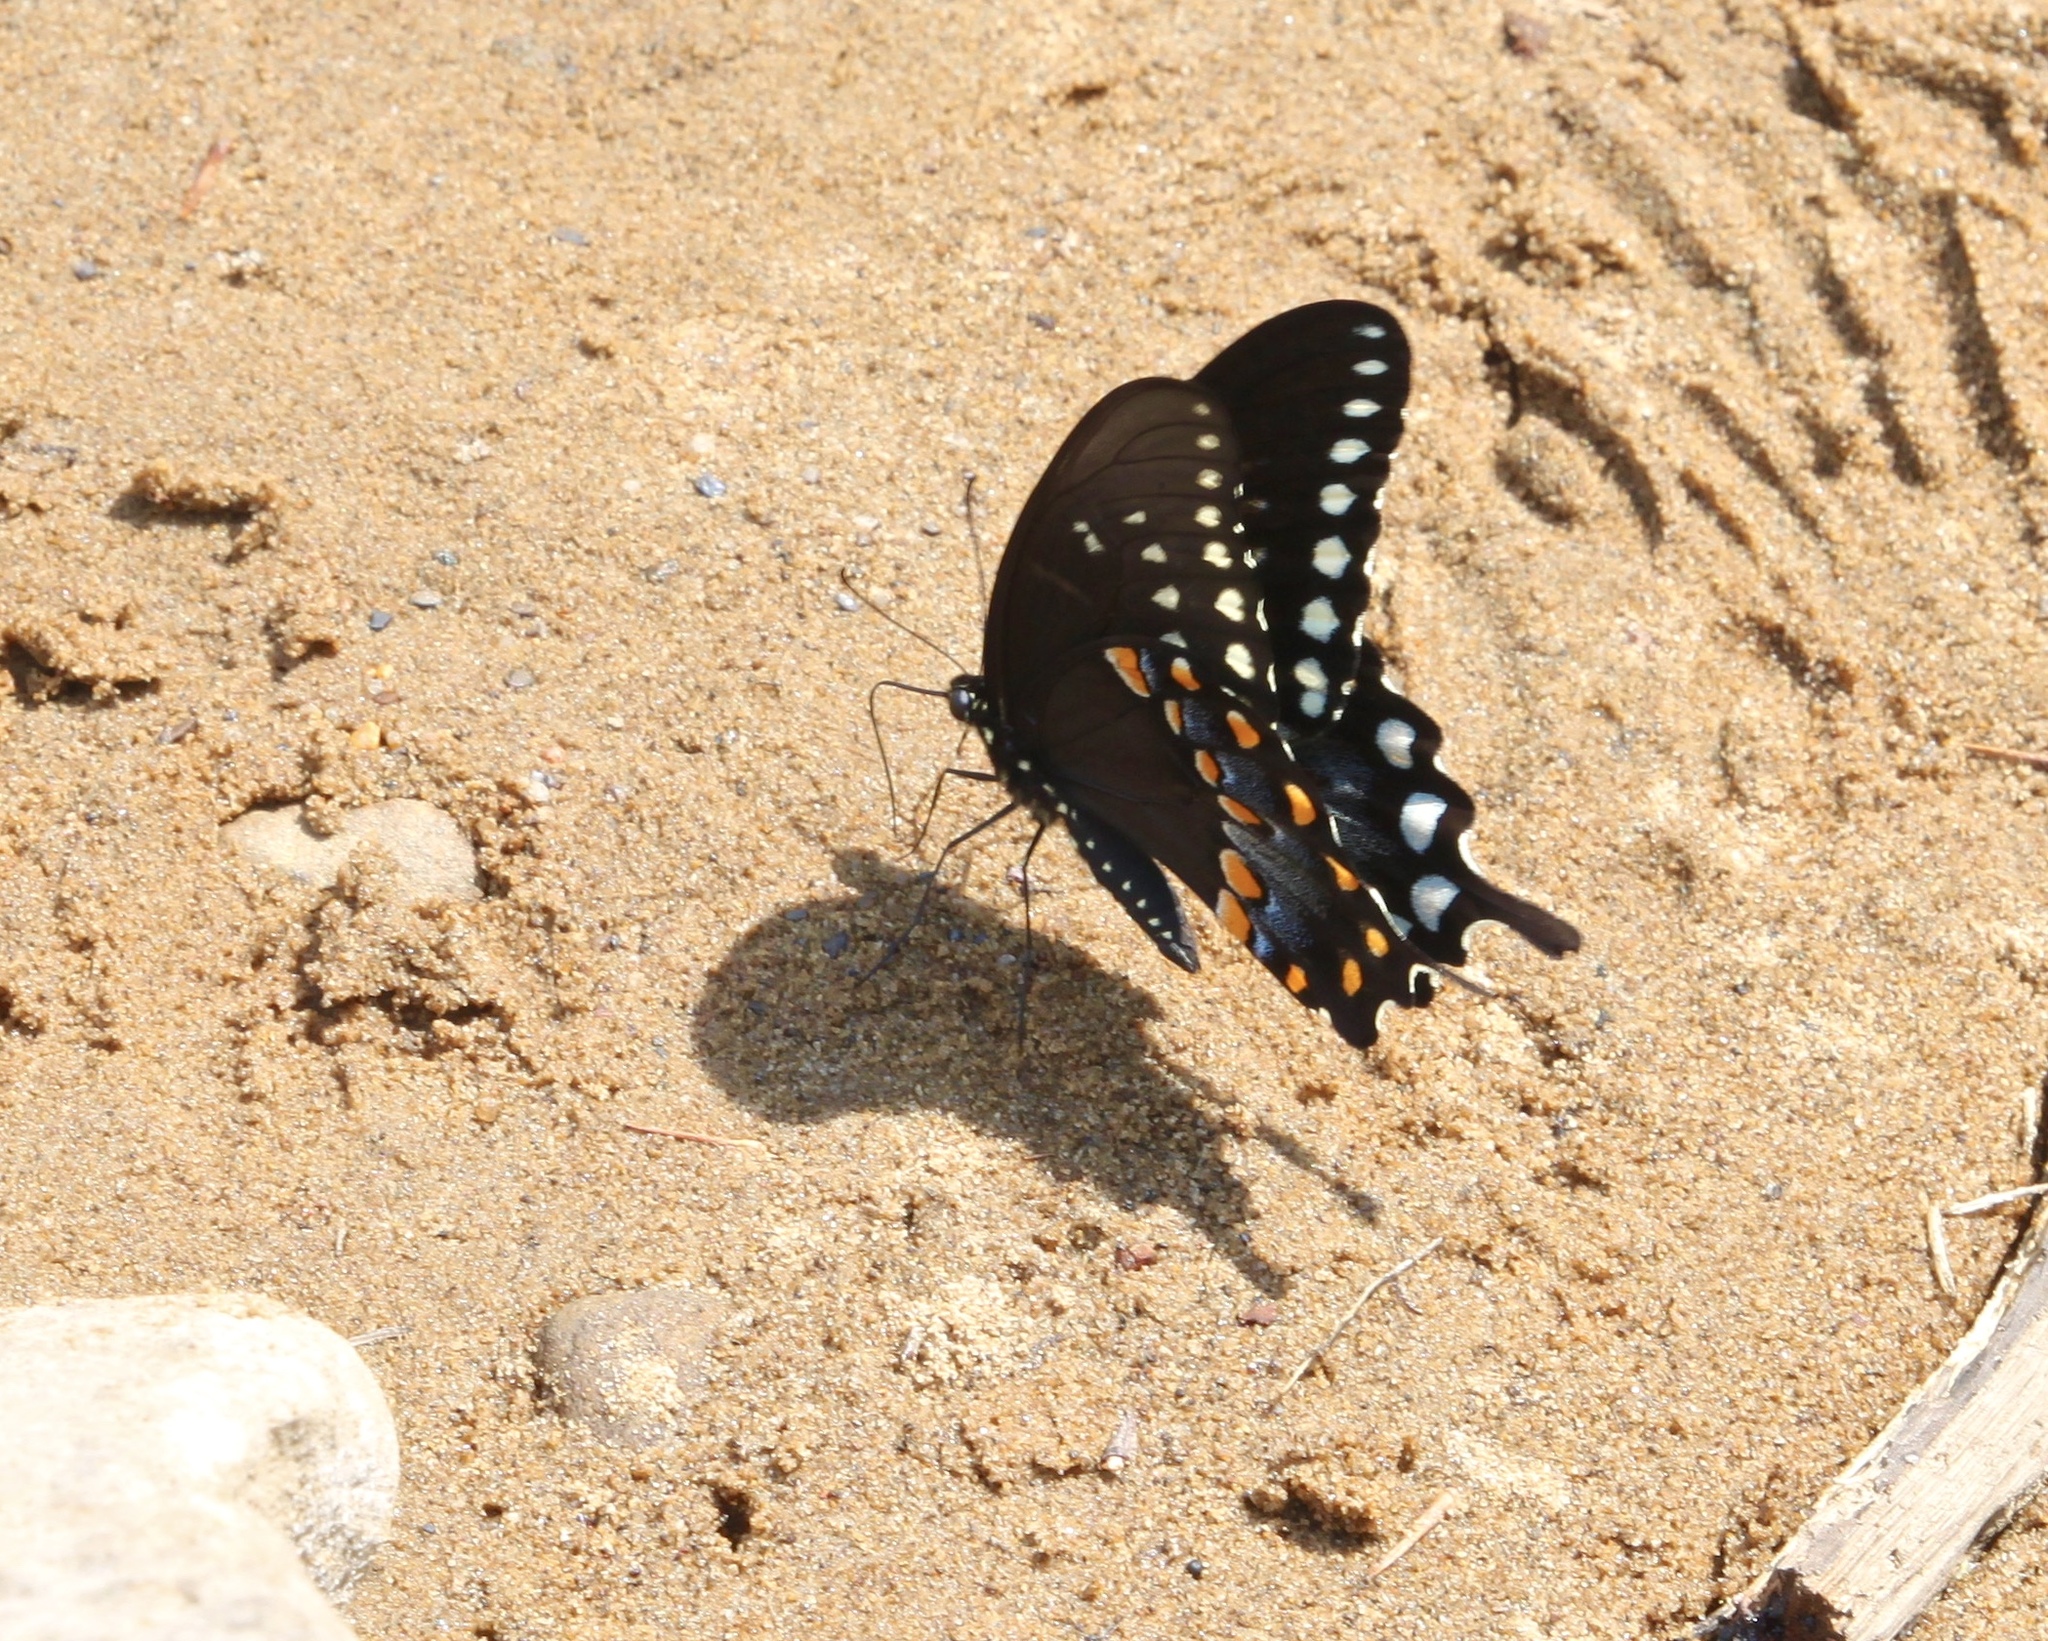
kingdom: Animalia
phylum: Arthropoda
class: Insecta
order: Lepidoptera
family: Papilionidae
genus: Papilio
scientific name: Papilio troilus
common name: Spicebush swallowtail
